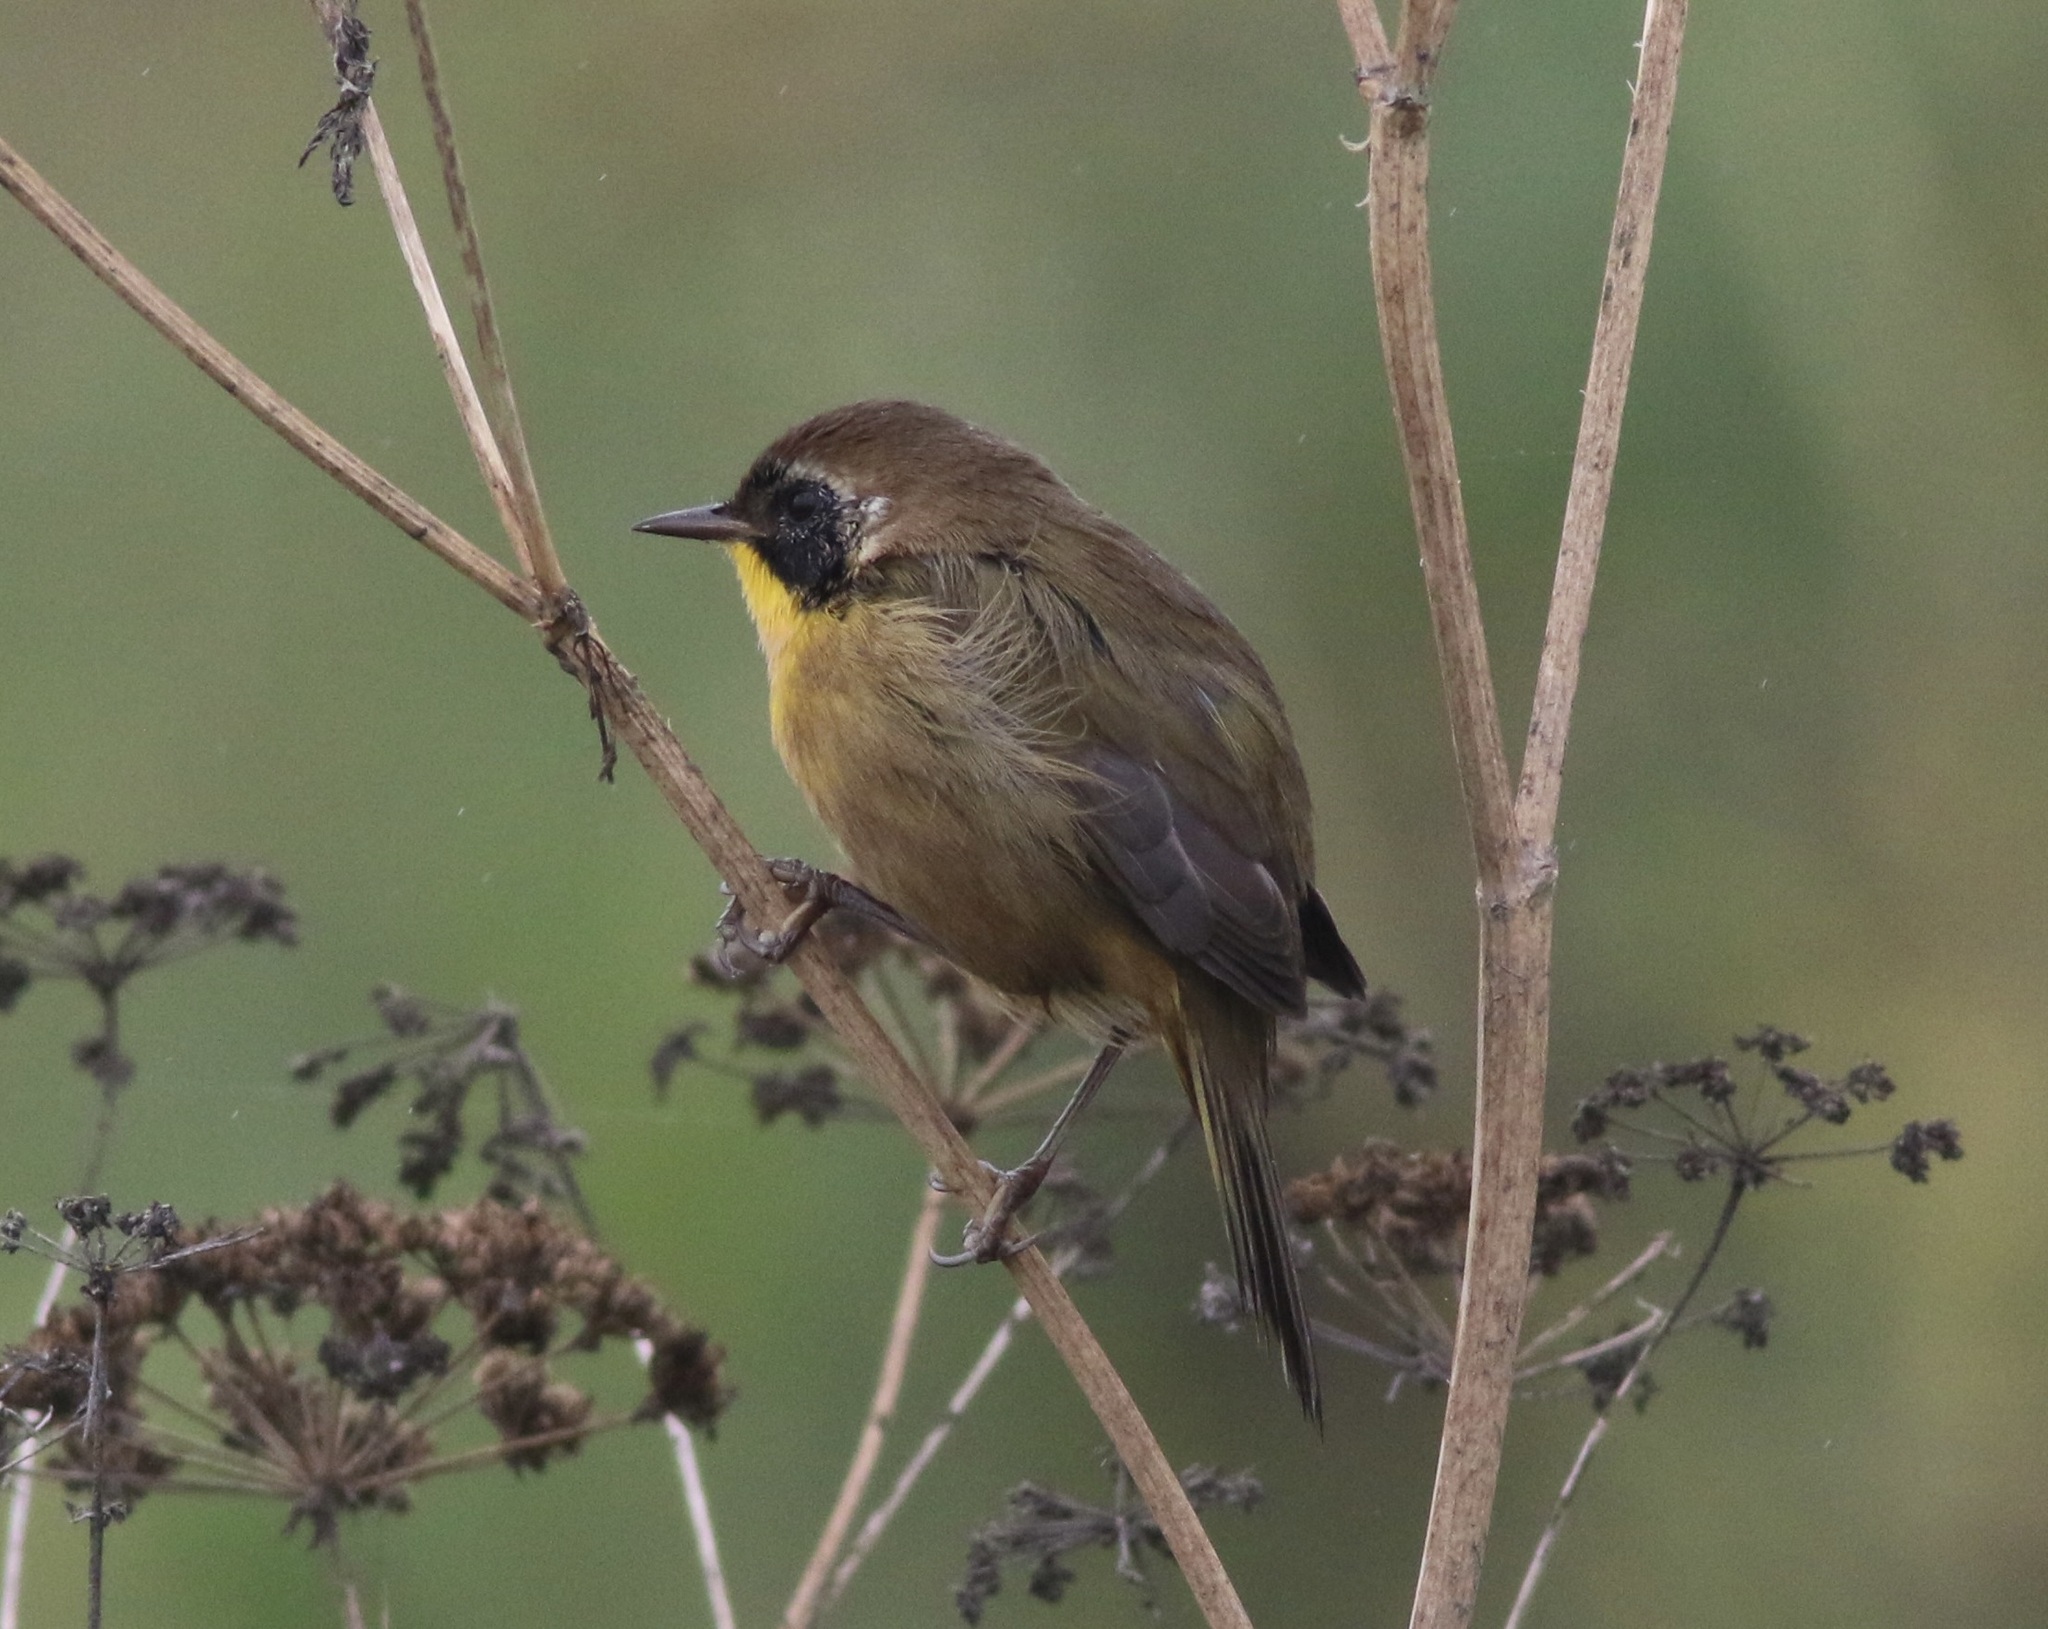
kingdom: Animalia
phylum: Chordata
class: Aves
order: Passeriformes
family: Parulidae
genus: Geothlypis
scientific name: Geothlypis trichas
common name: Common yellowthroat
